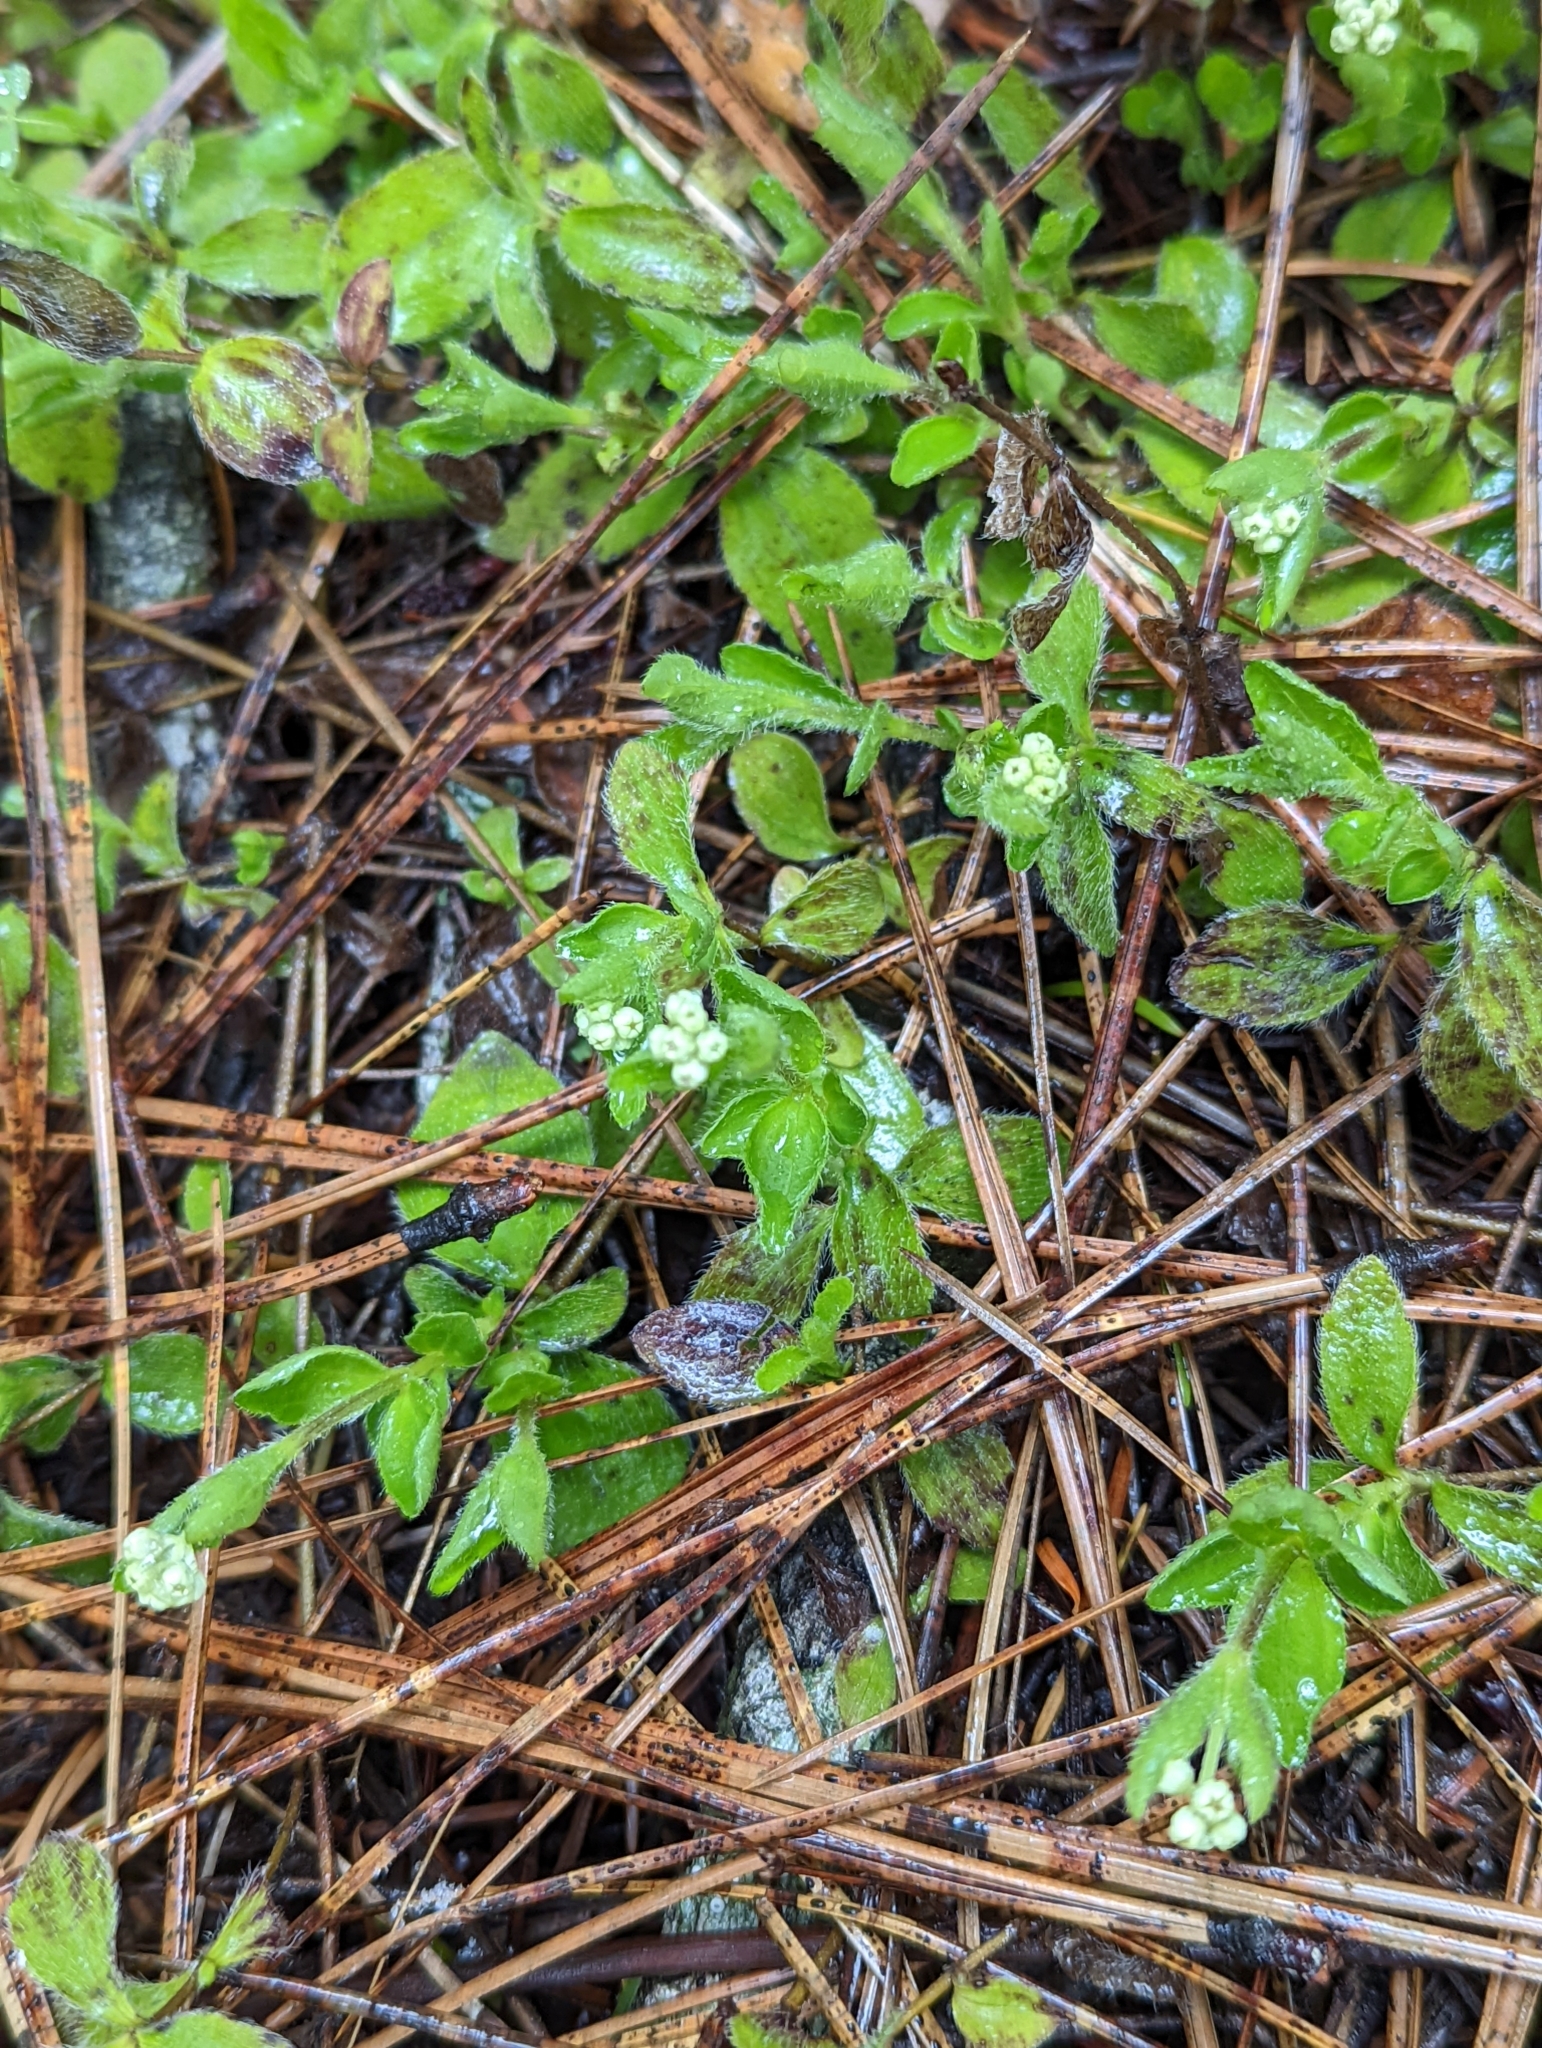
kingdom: Plantae
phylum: Tracheophyta
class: Magnoliopsida
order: Cornales
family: Hydrangeaceae
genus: Whipplea
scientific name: Whipplea modesta
